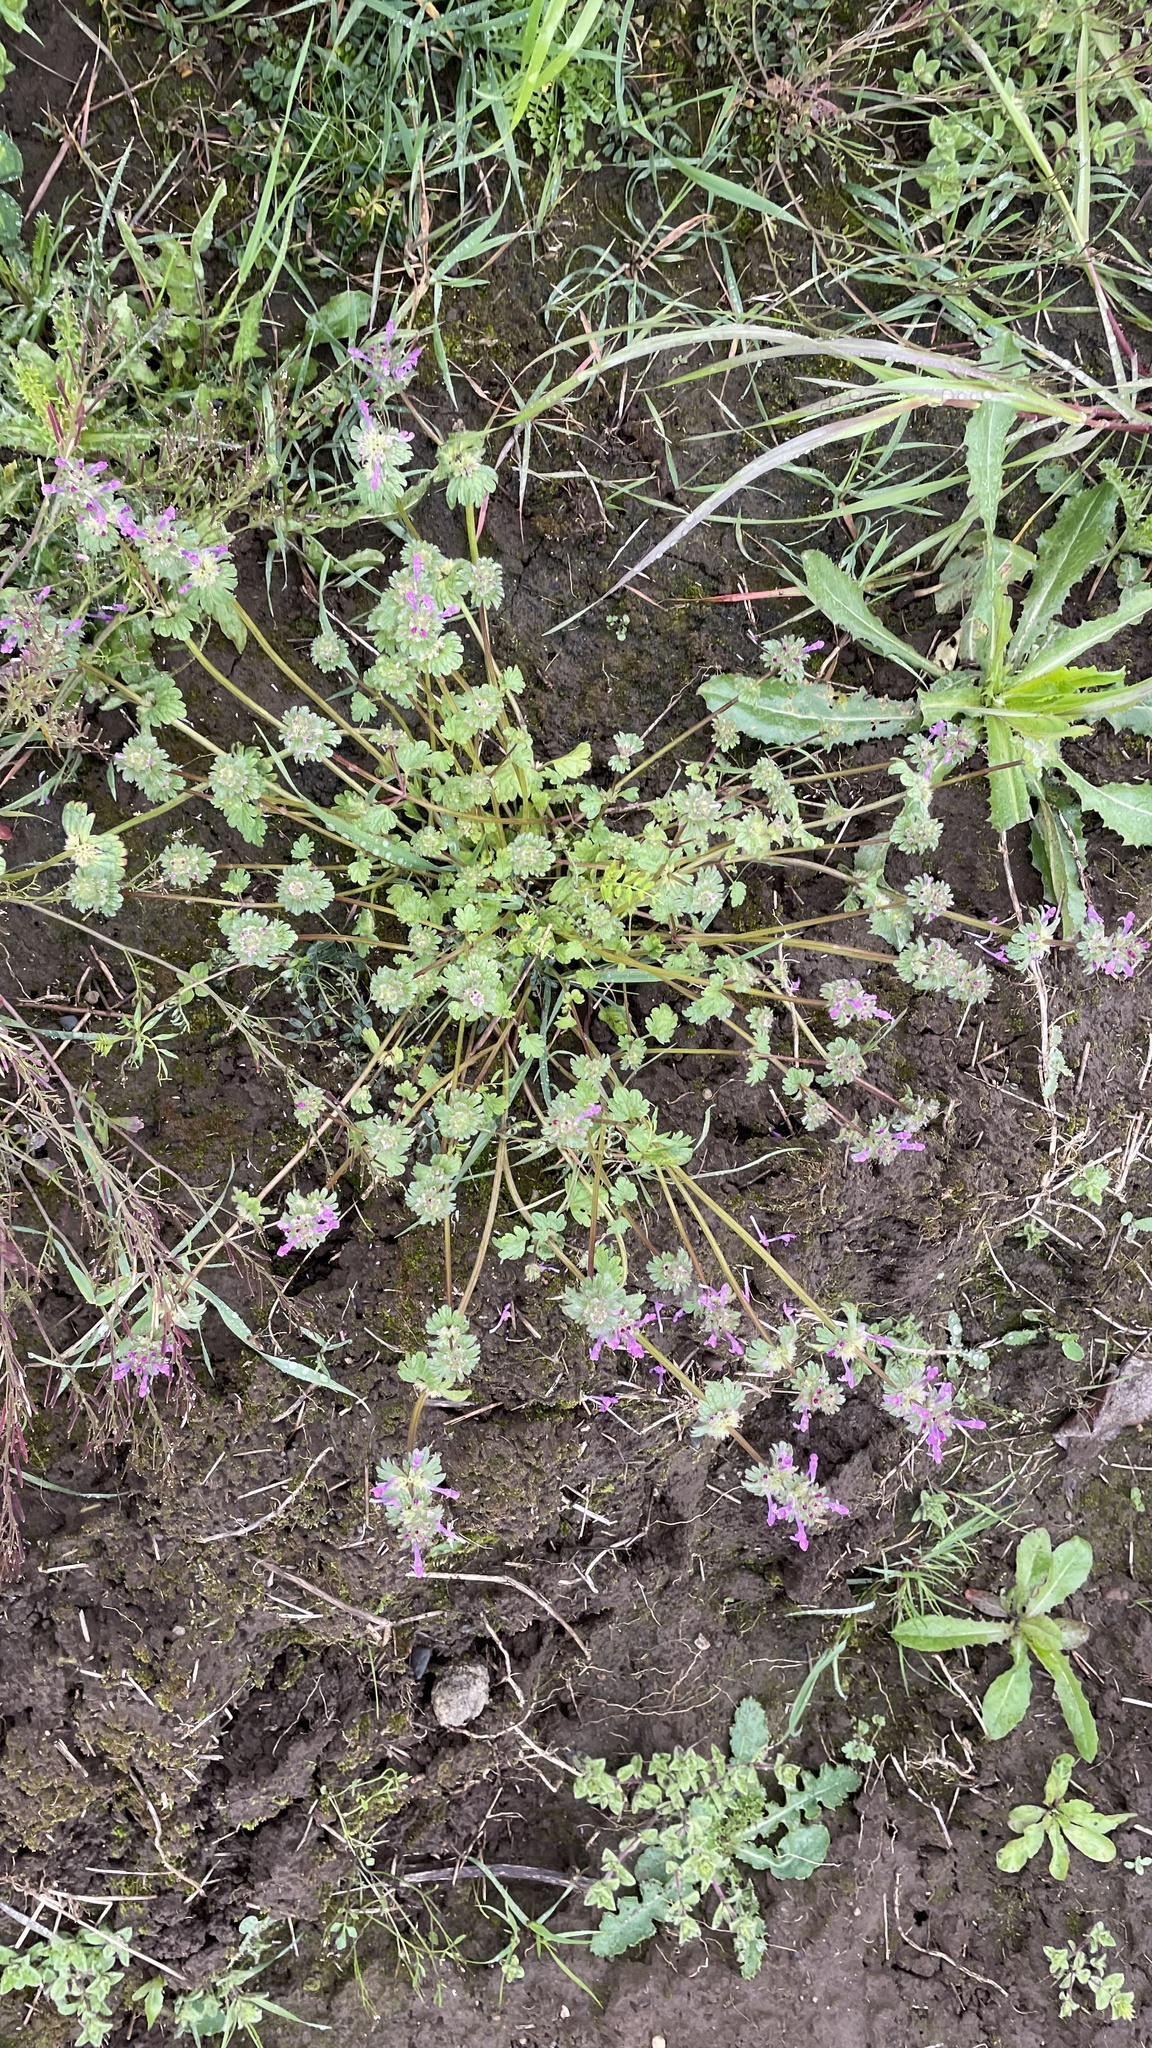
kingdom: Plantae
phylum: Tracheophyta
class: Magnoliopsida
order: Lamiales
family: Lamiaceae
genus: Lamium
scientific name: Lamium amplexicaule
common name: Henbit dead-nettle
